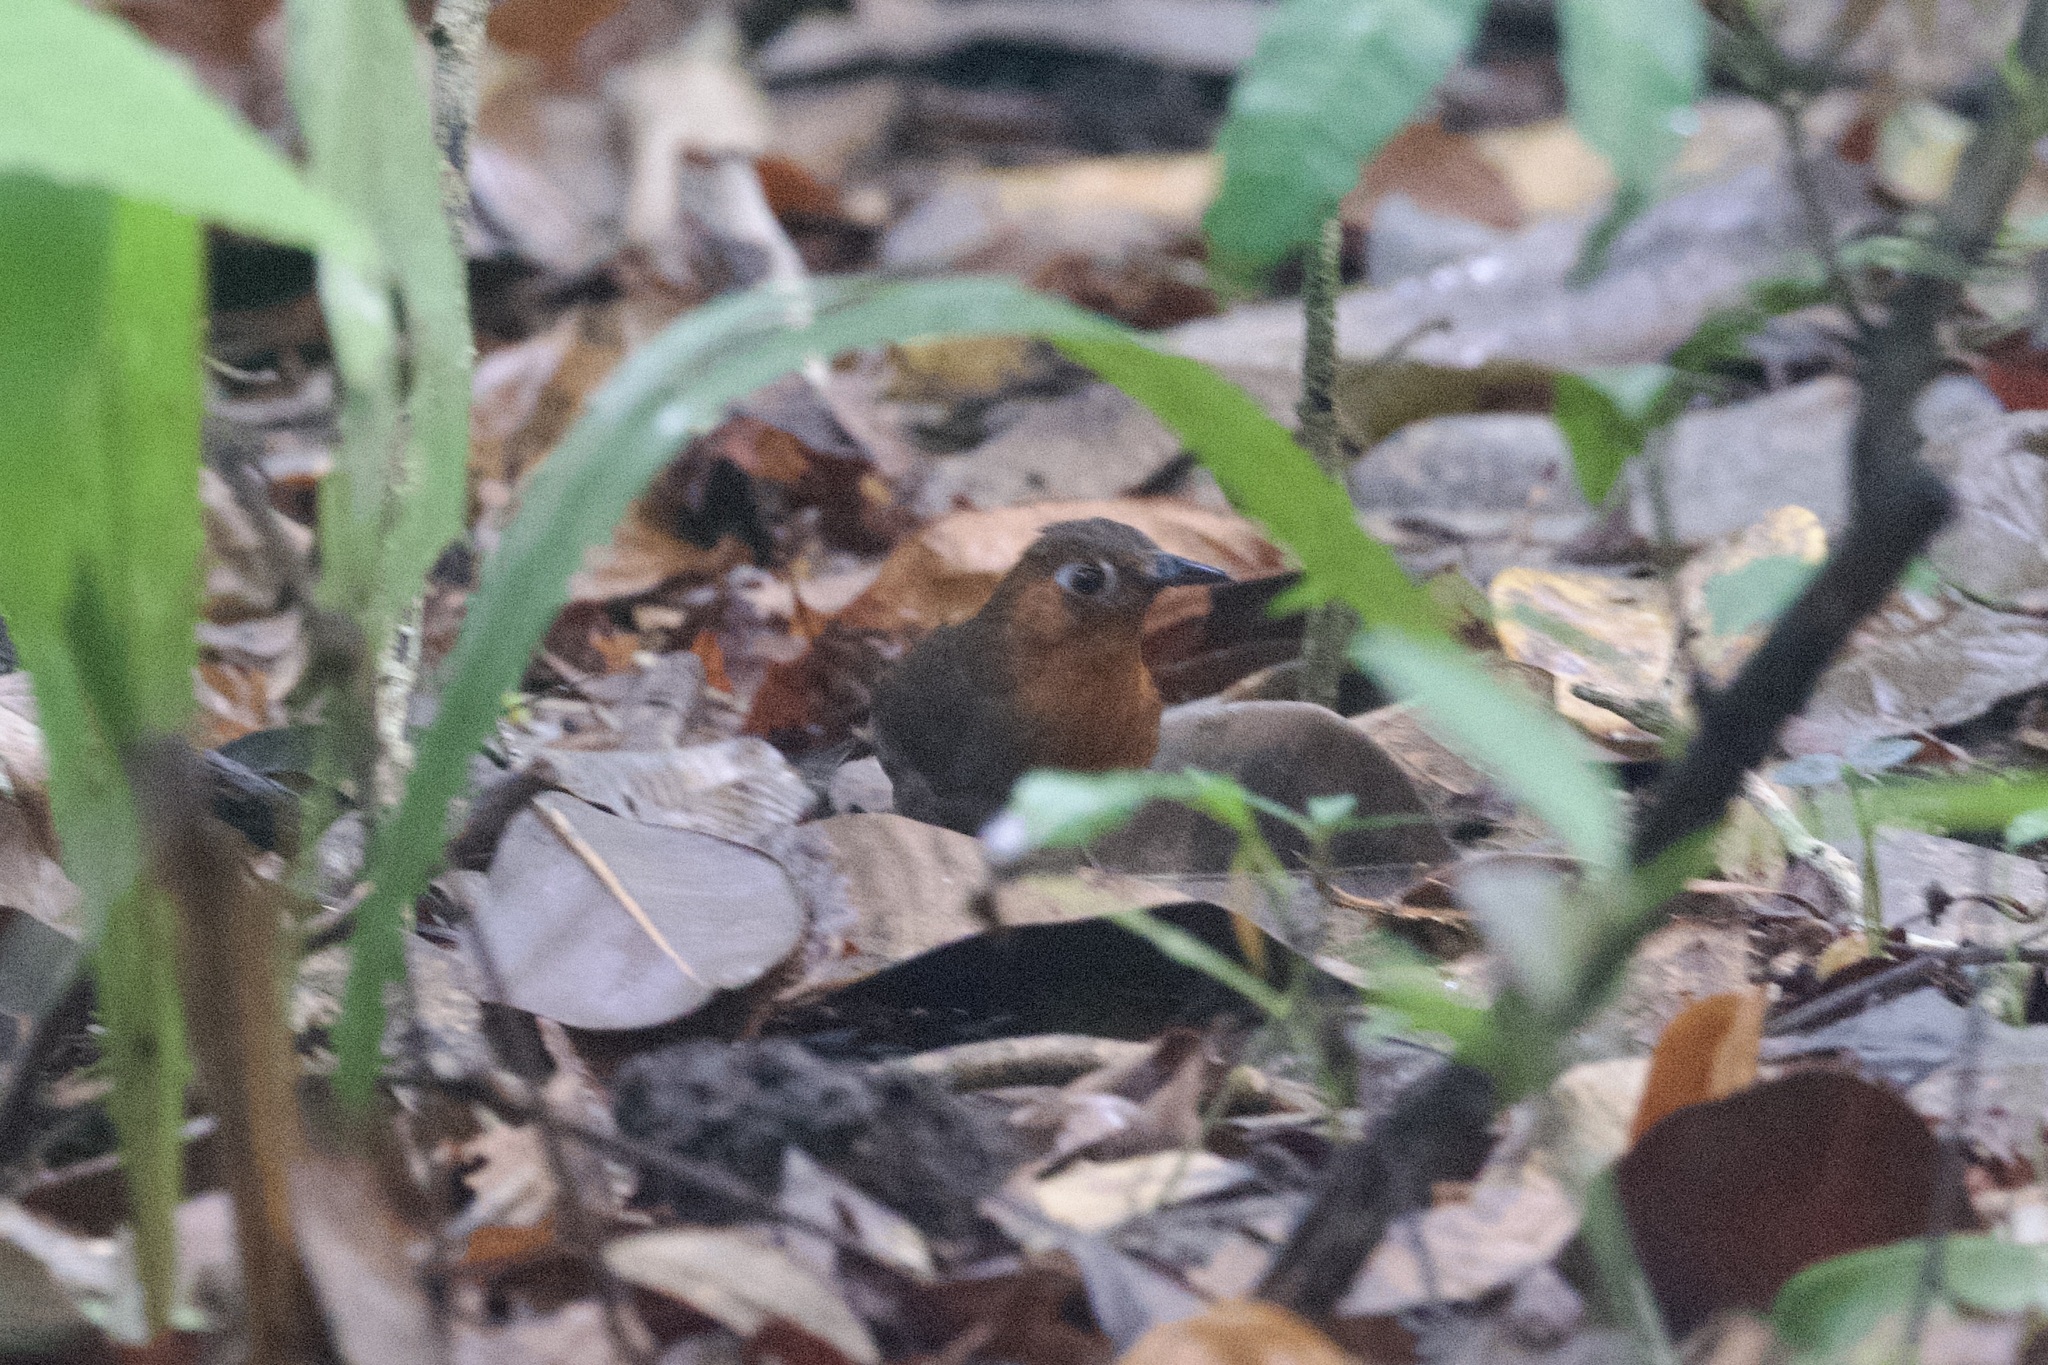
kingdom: Animalia
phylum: Chordata
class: Aves
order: Passeriformes
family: Troglodytidae
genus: Cyphorhinus
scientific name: Cyphorhinus phaeocephalus
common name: Song wren
